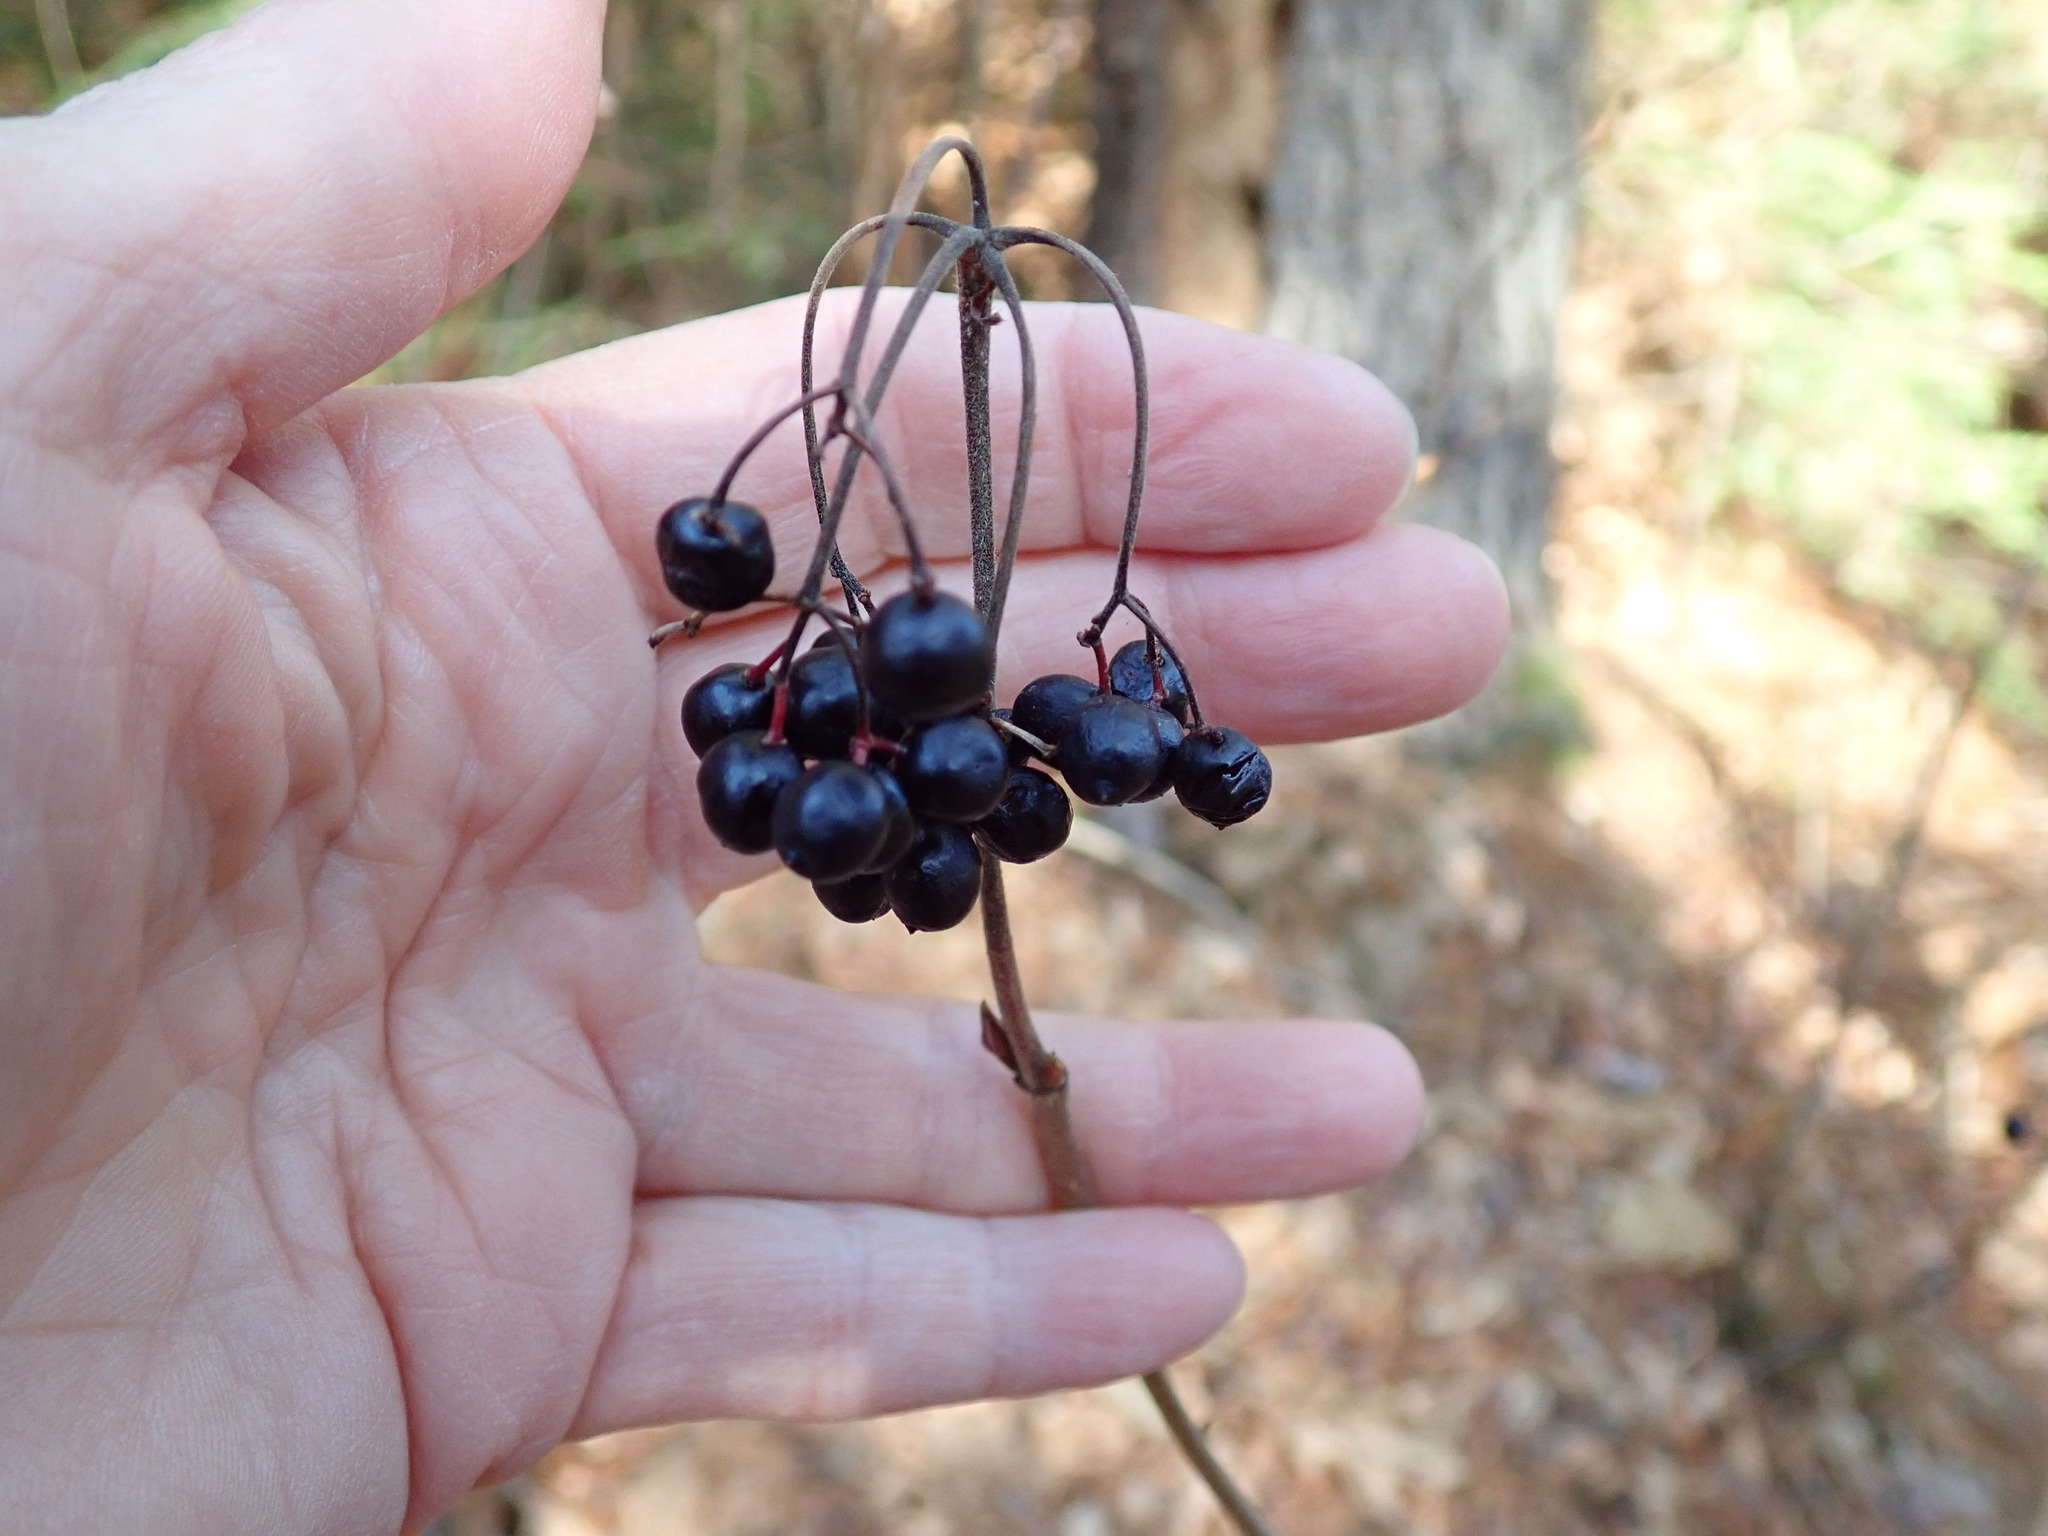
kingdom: Plantae
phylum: Tracheophyta
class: Magnoliopsida
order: Dipsacales
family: Viburnaceae
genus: Viburnum
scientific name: Viburnum acerifolium
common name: Dockmackie
